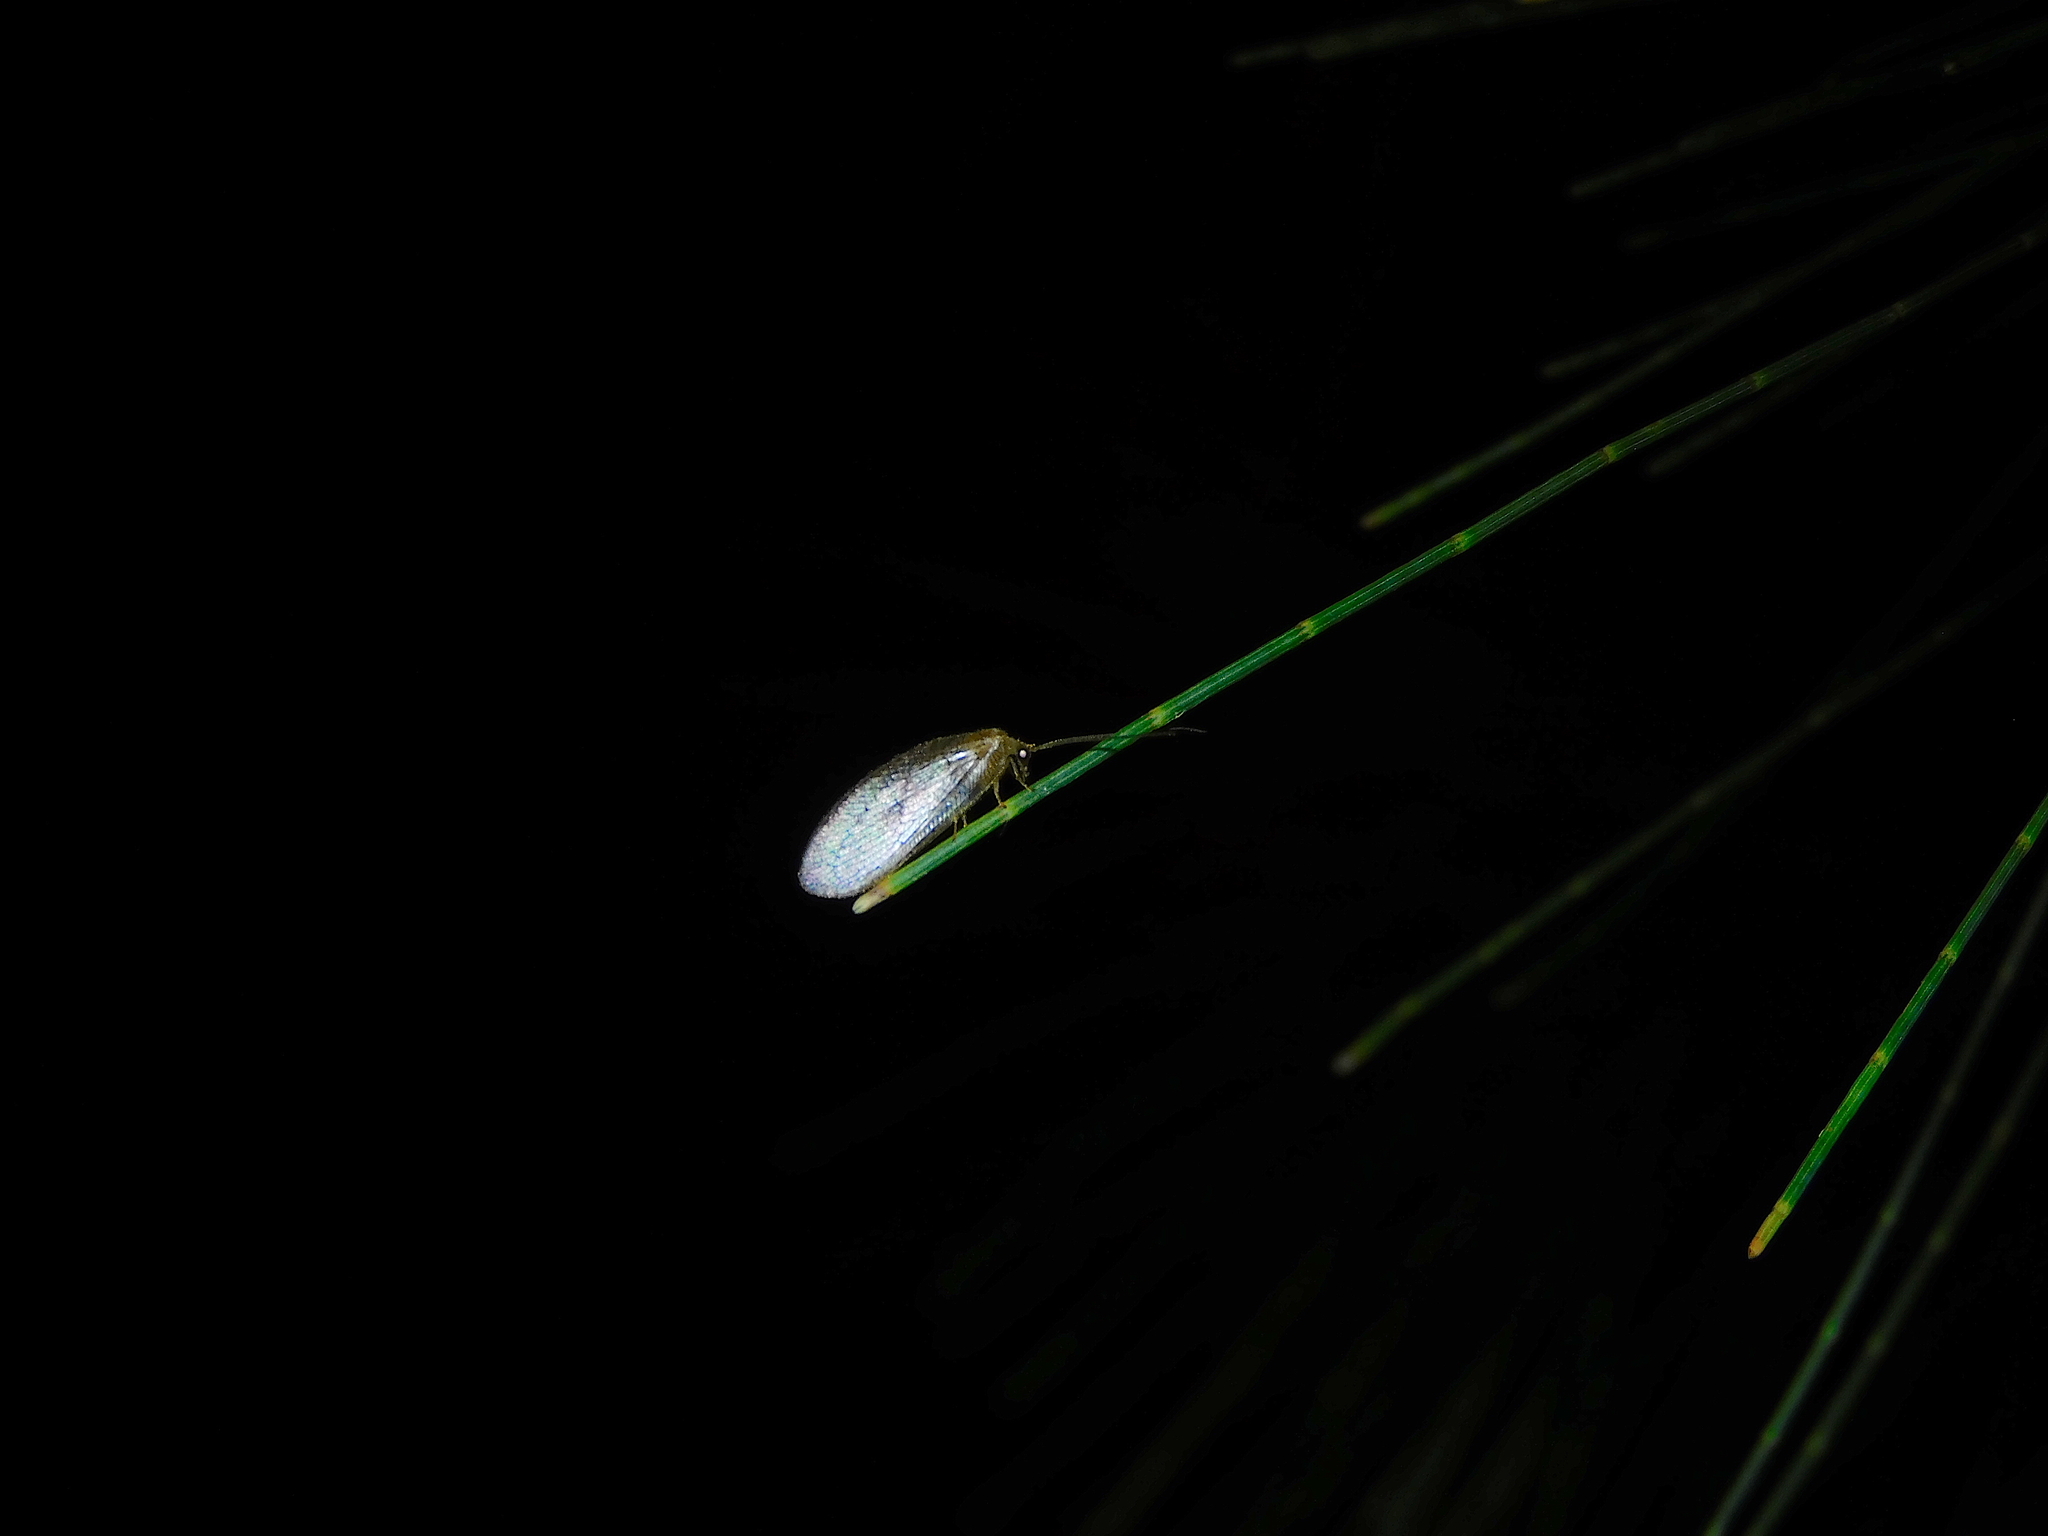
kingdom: Animalia
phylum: Arthropoda
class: Insecta
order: Neuroptera
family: Hemerobiidae
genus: Psychobiella
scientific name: Psychobiella sordida
